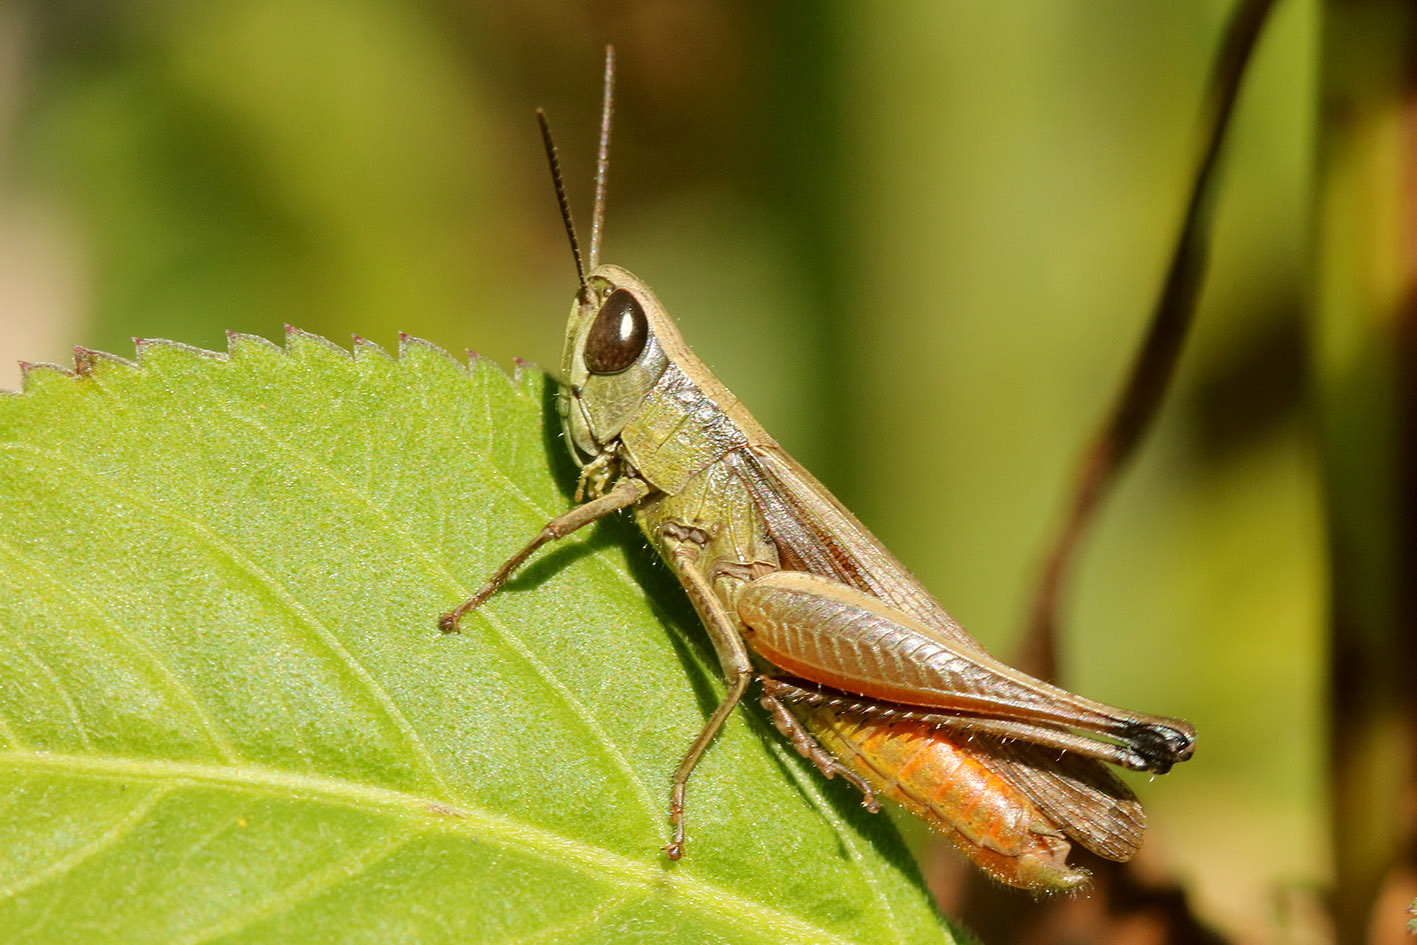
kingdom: Animalia
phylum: Arthropoda
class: Insecta
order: Orthoptera
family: Acrididae
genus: Amblytropidia
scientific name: Amblytropidia australis
